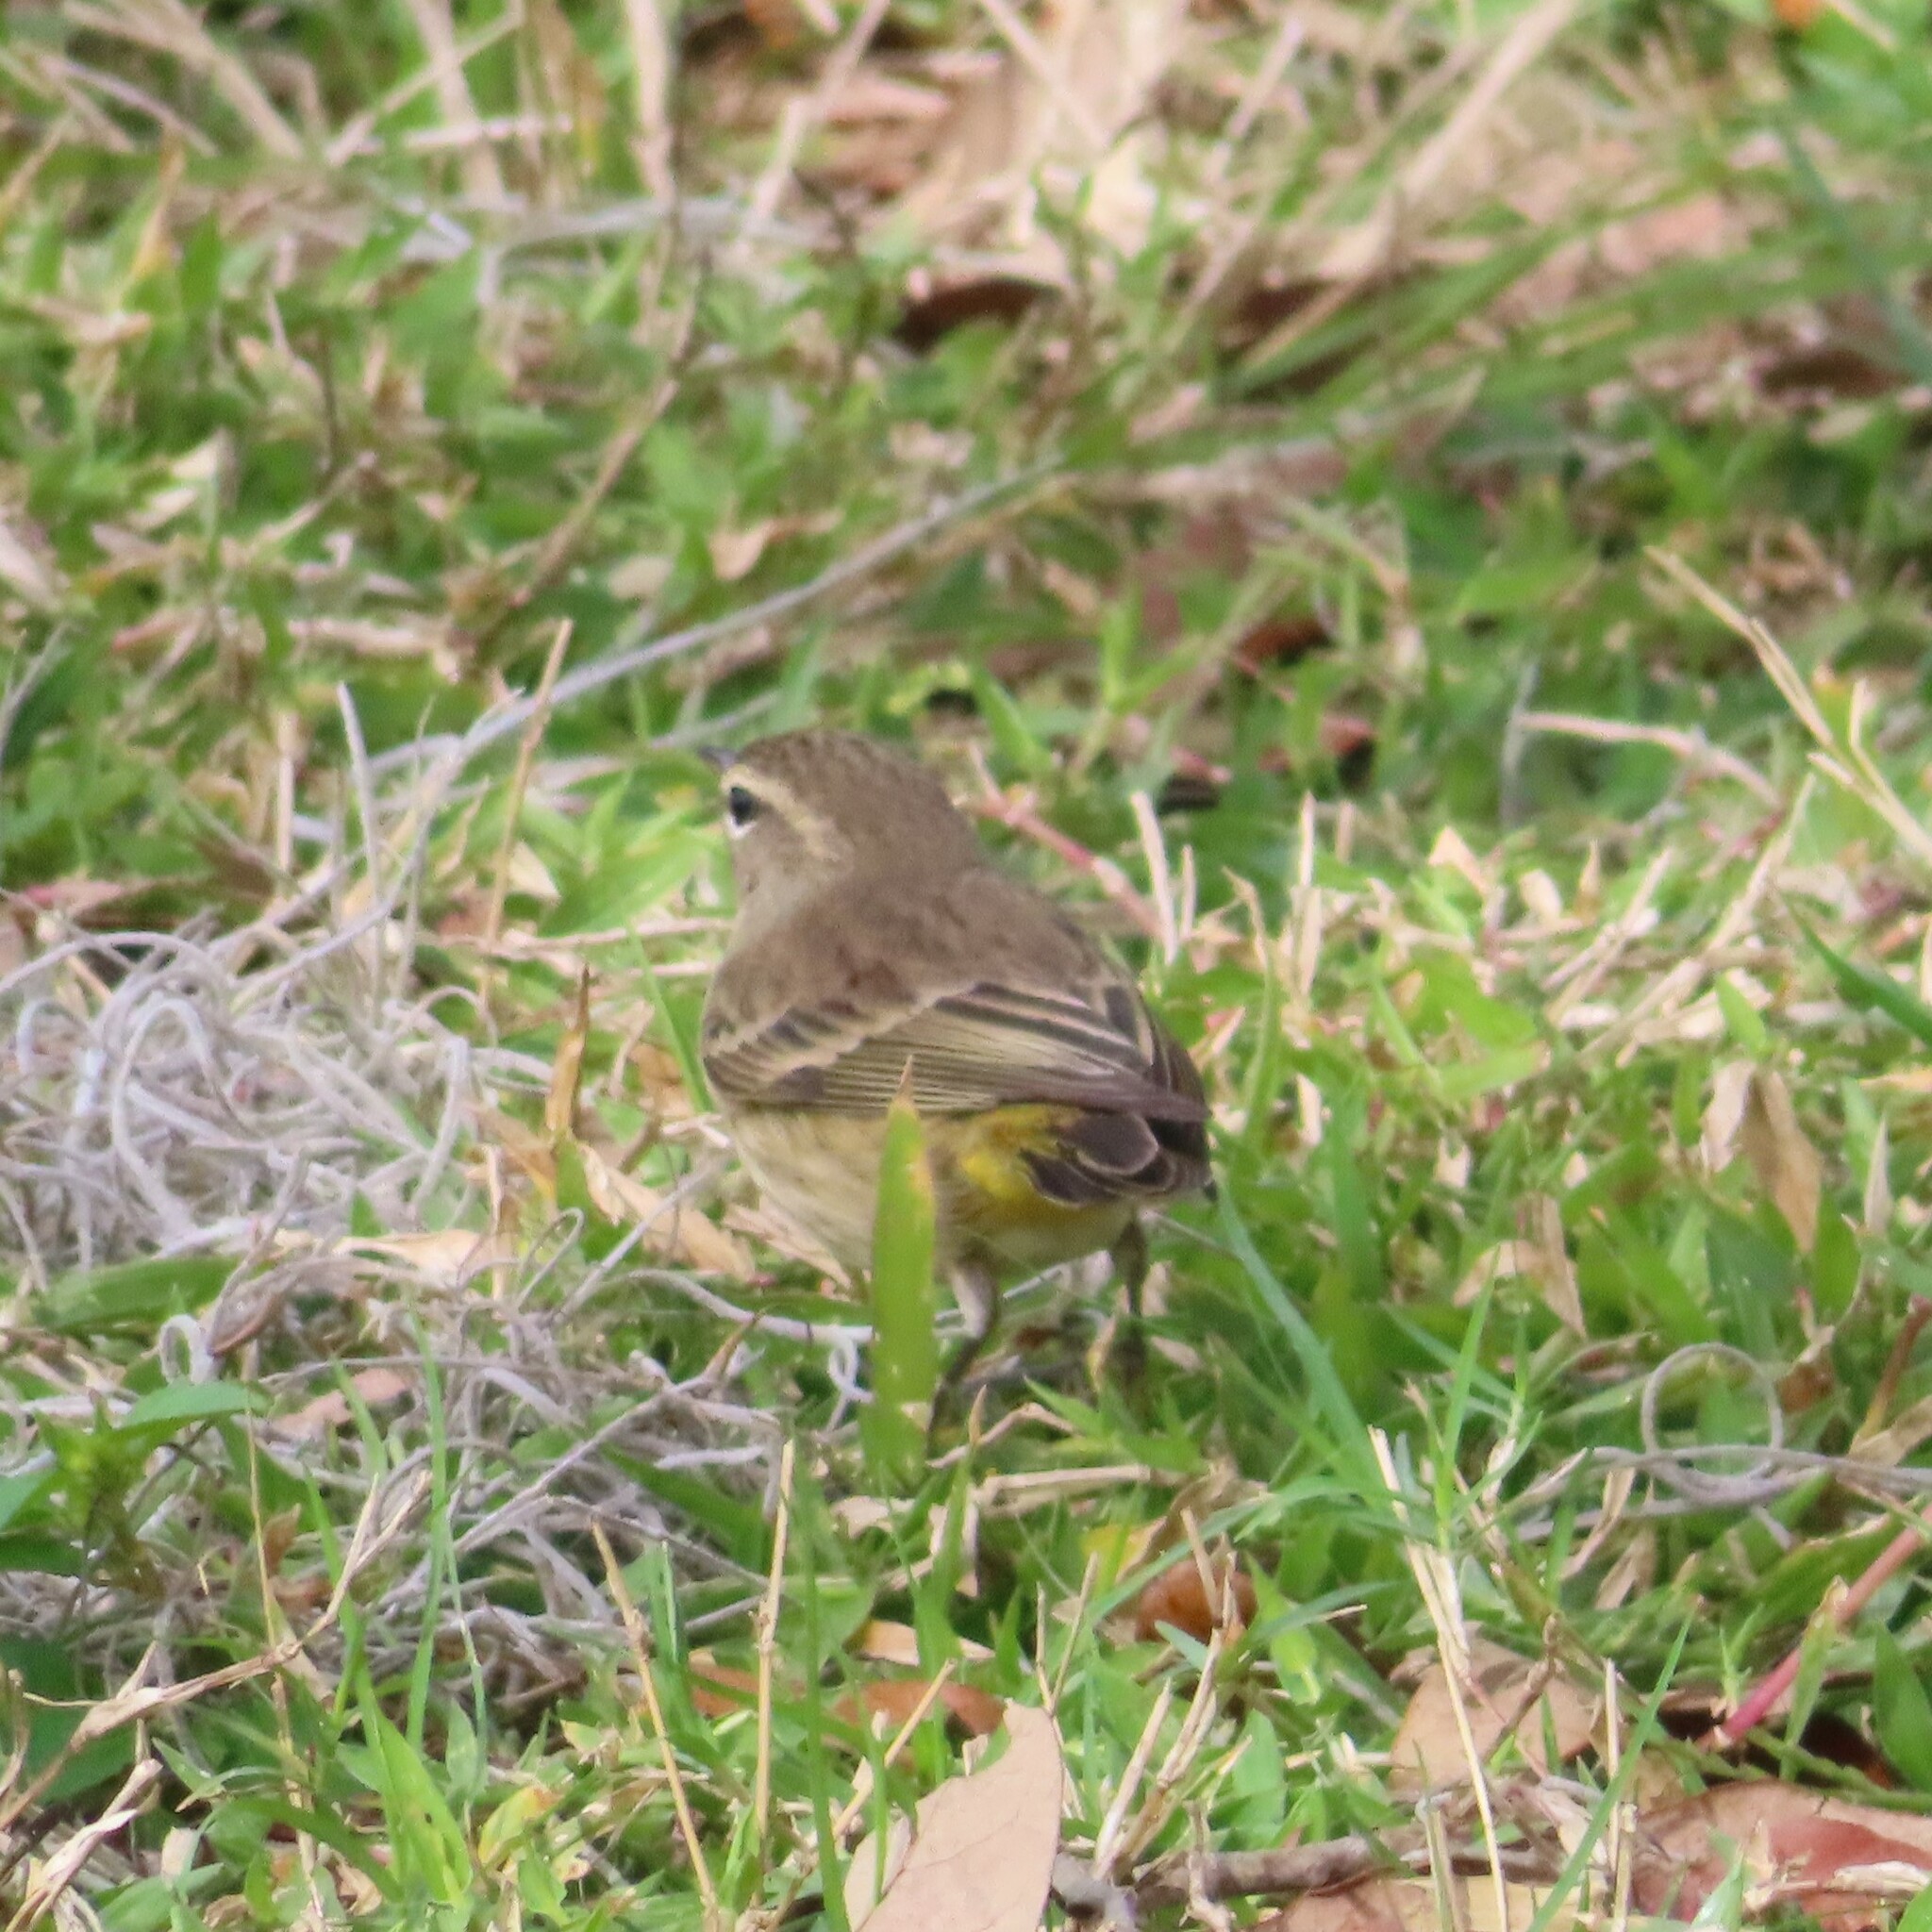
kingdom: Animalia
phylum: Chordata
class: Aves
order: Passeriformes
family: Parulidae
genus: Setophaga
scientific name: Setophaga palmarum
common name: Palm warbler
